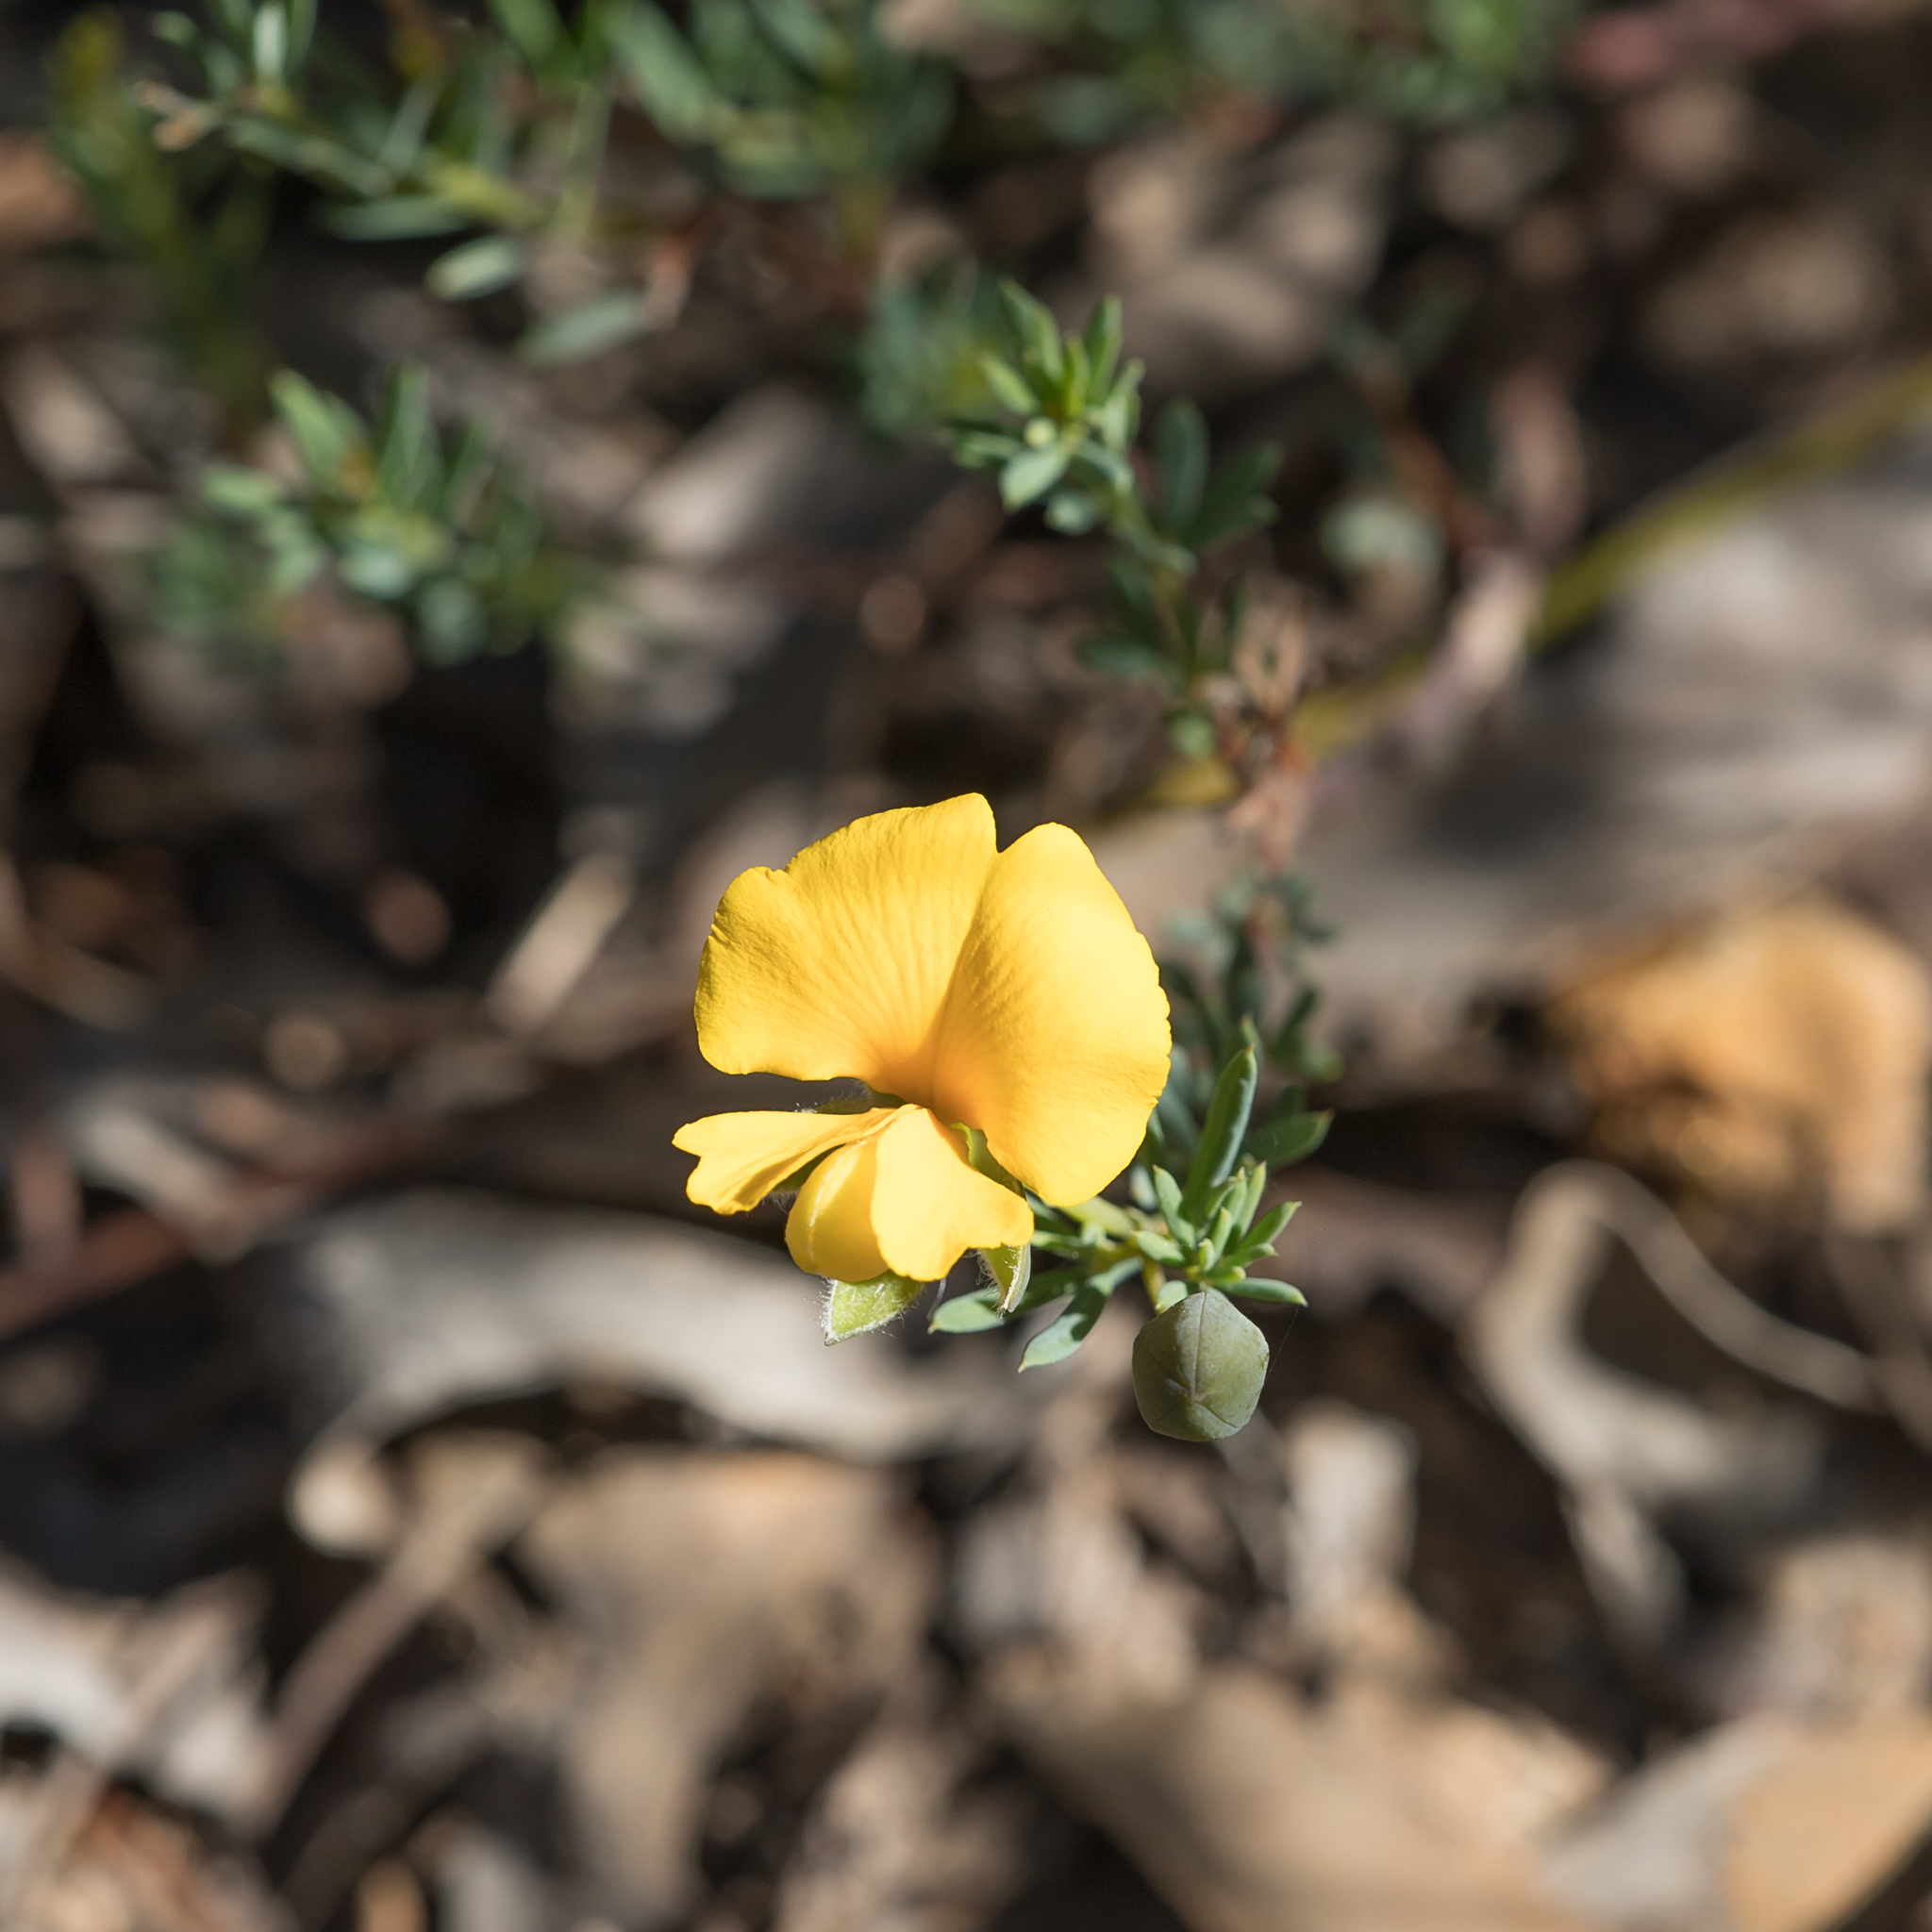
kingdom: Plantae
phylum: Tracheophyta
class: Magnoliopsida
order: Fabales
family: Fabaceae
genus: Gompholobium
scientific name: Gompholobium huegelii
